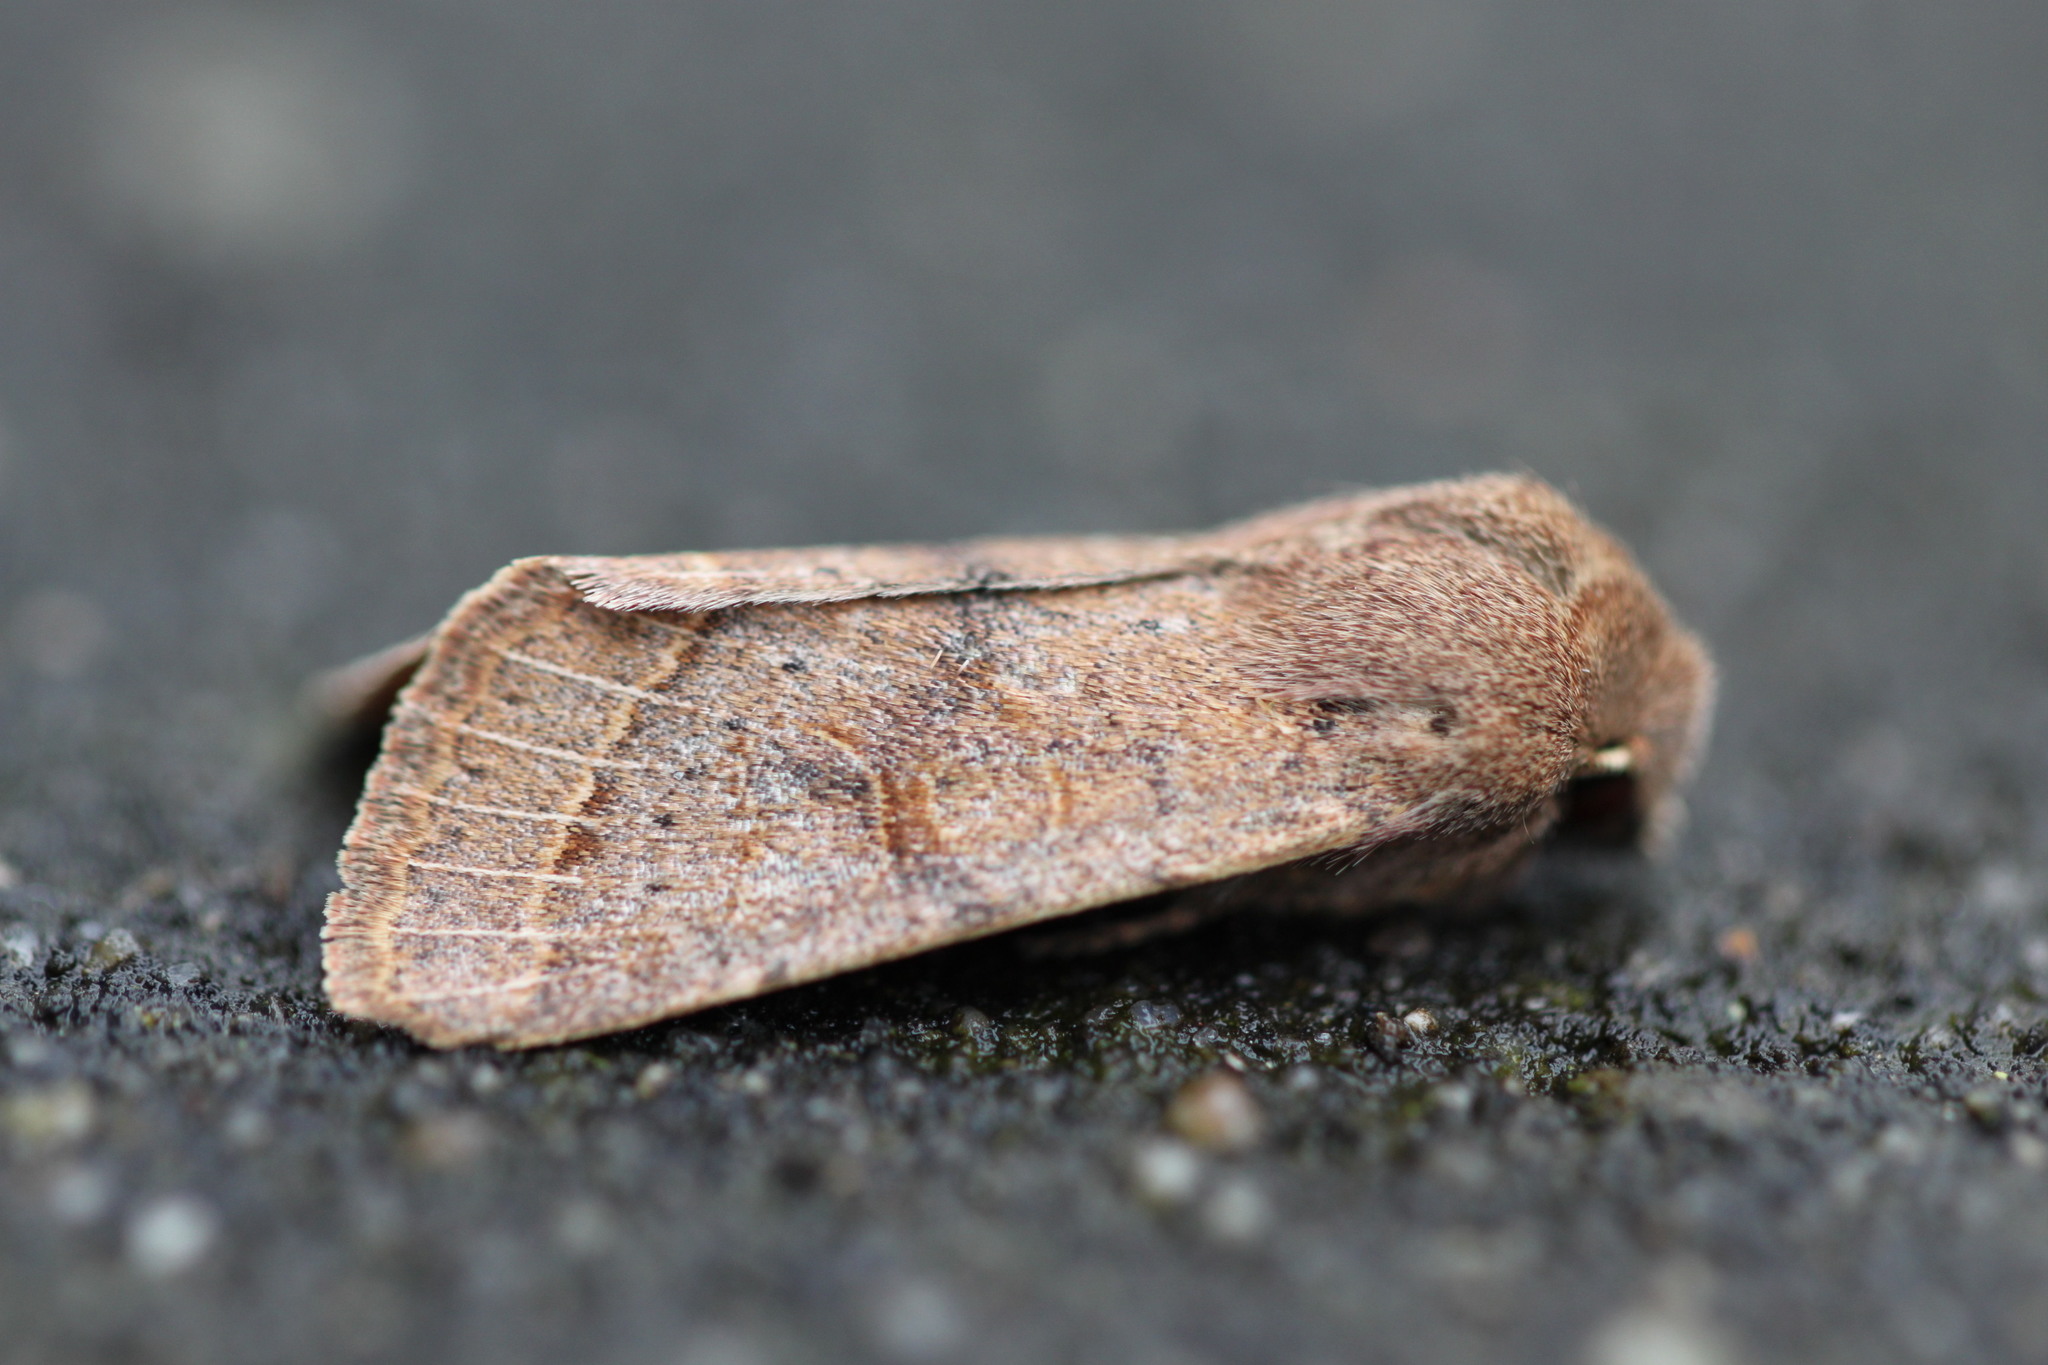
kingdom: Animalia
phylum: Arthropoda
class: Insecta
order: Lepidoptera
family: Noctuidae
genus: Orthosia
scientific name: Orthosia cerasi
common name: Common quaker
